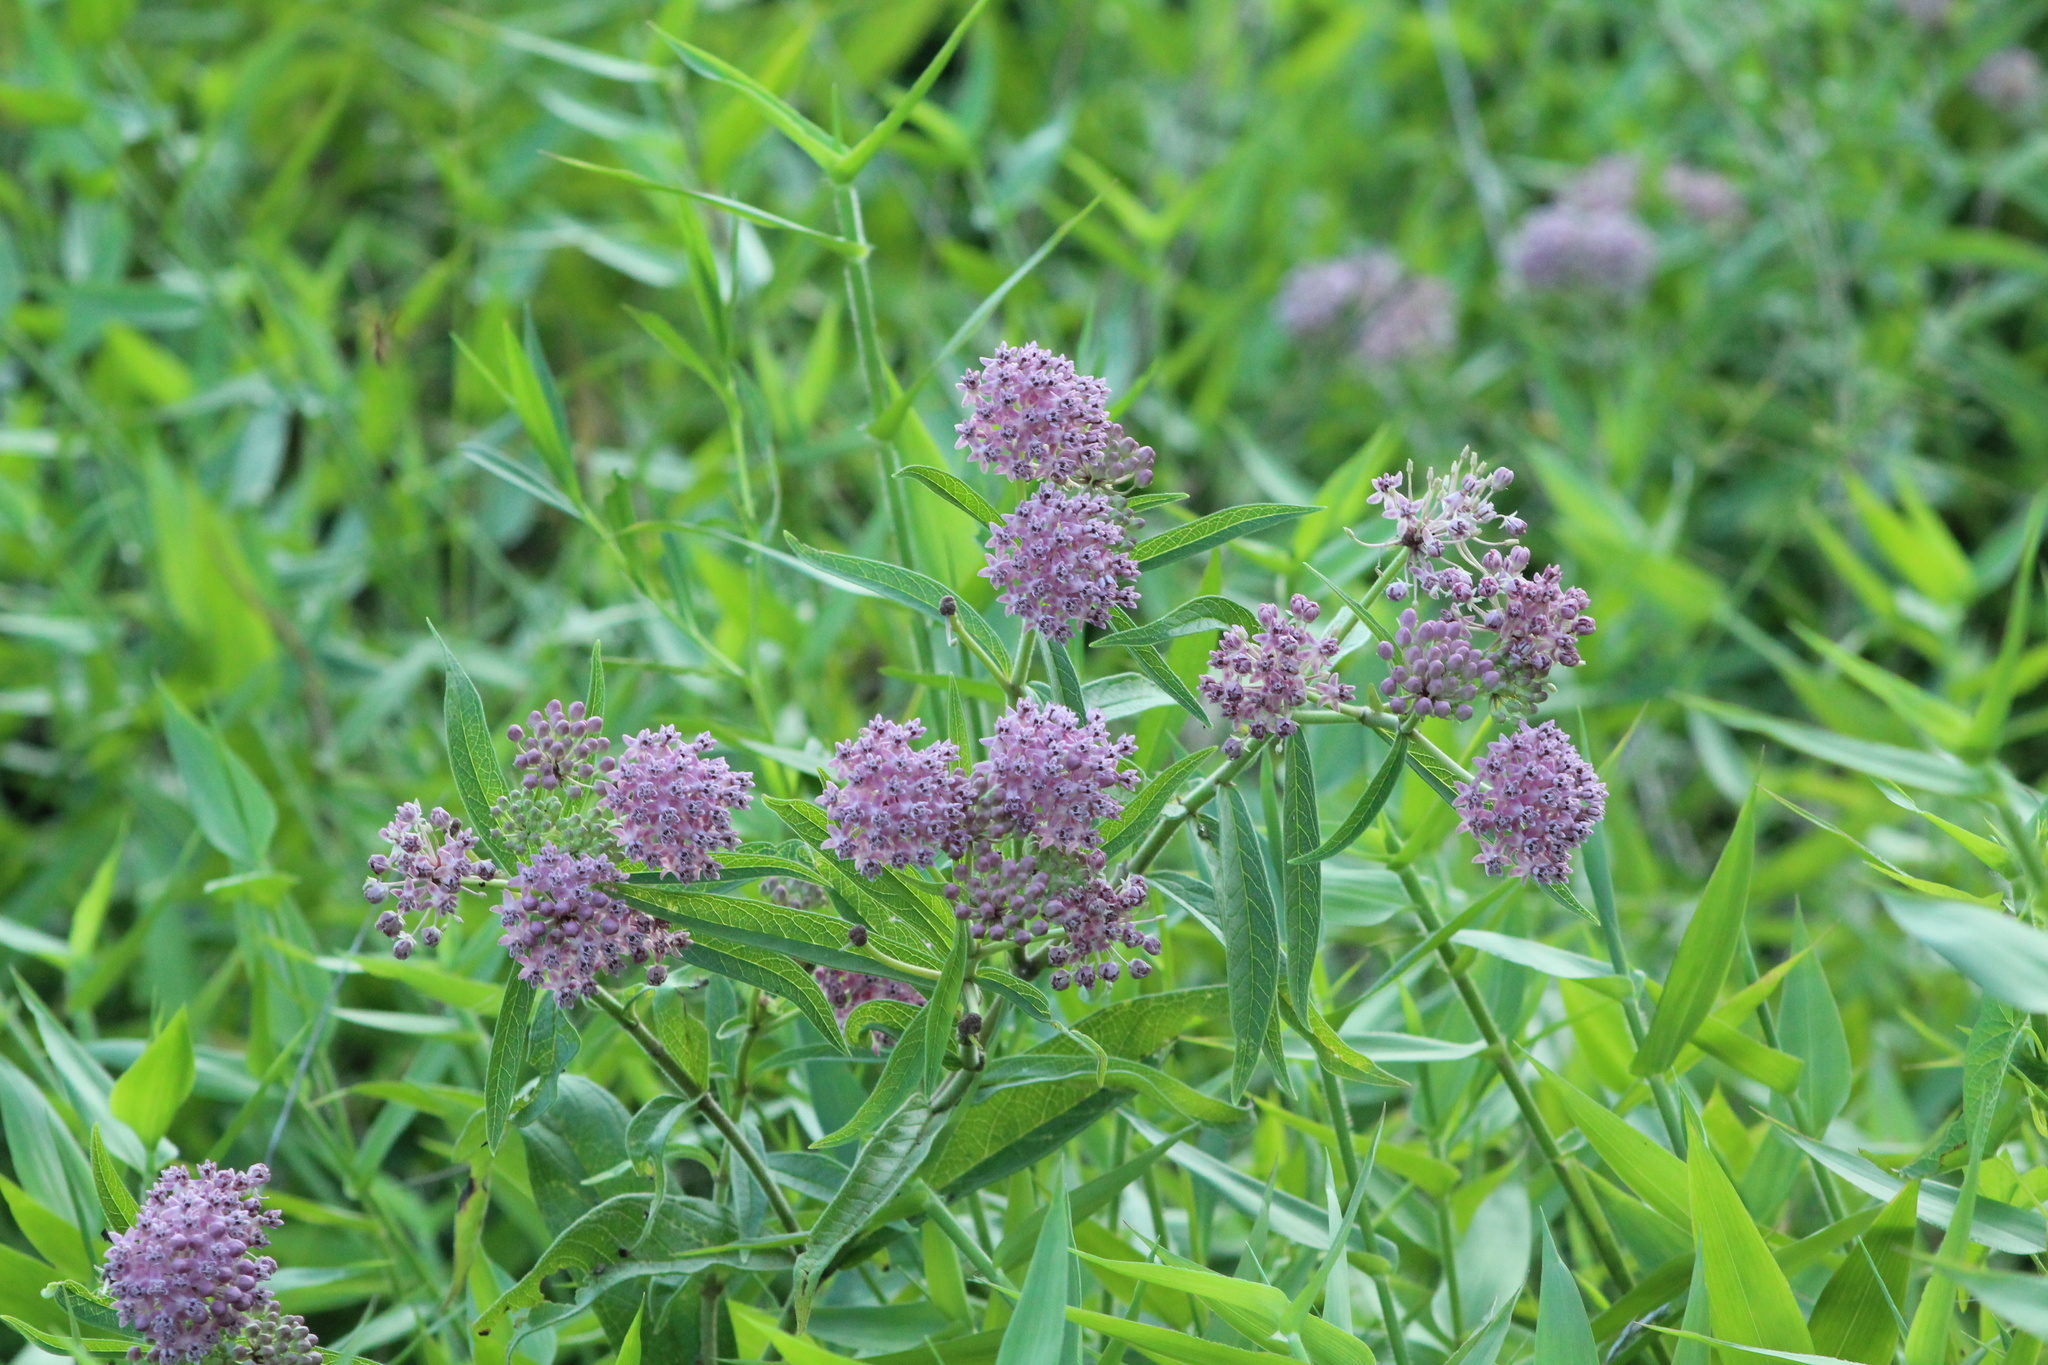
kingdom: Plantae
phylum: Tracheophyta
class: Magnoliopsida
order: Gentianales
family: Apocynaceae
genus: Asclepias
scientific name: Asclepias incarnata
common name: Swamp milkweed
